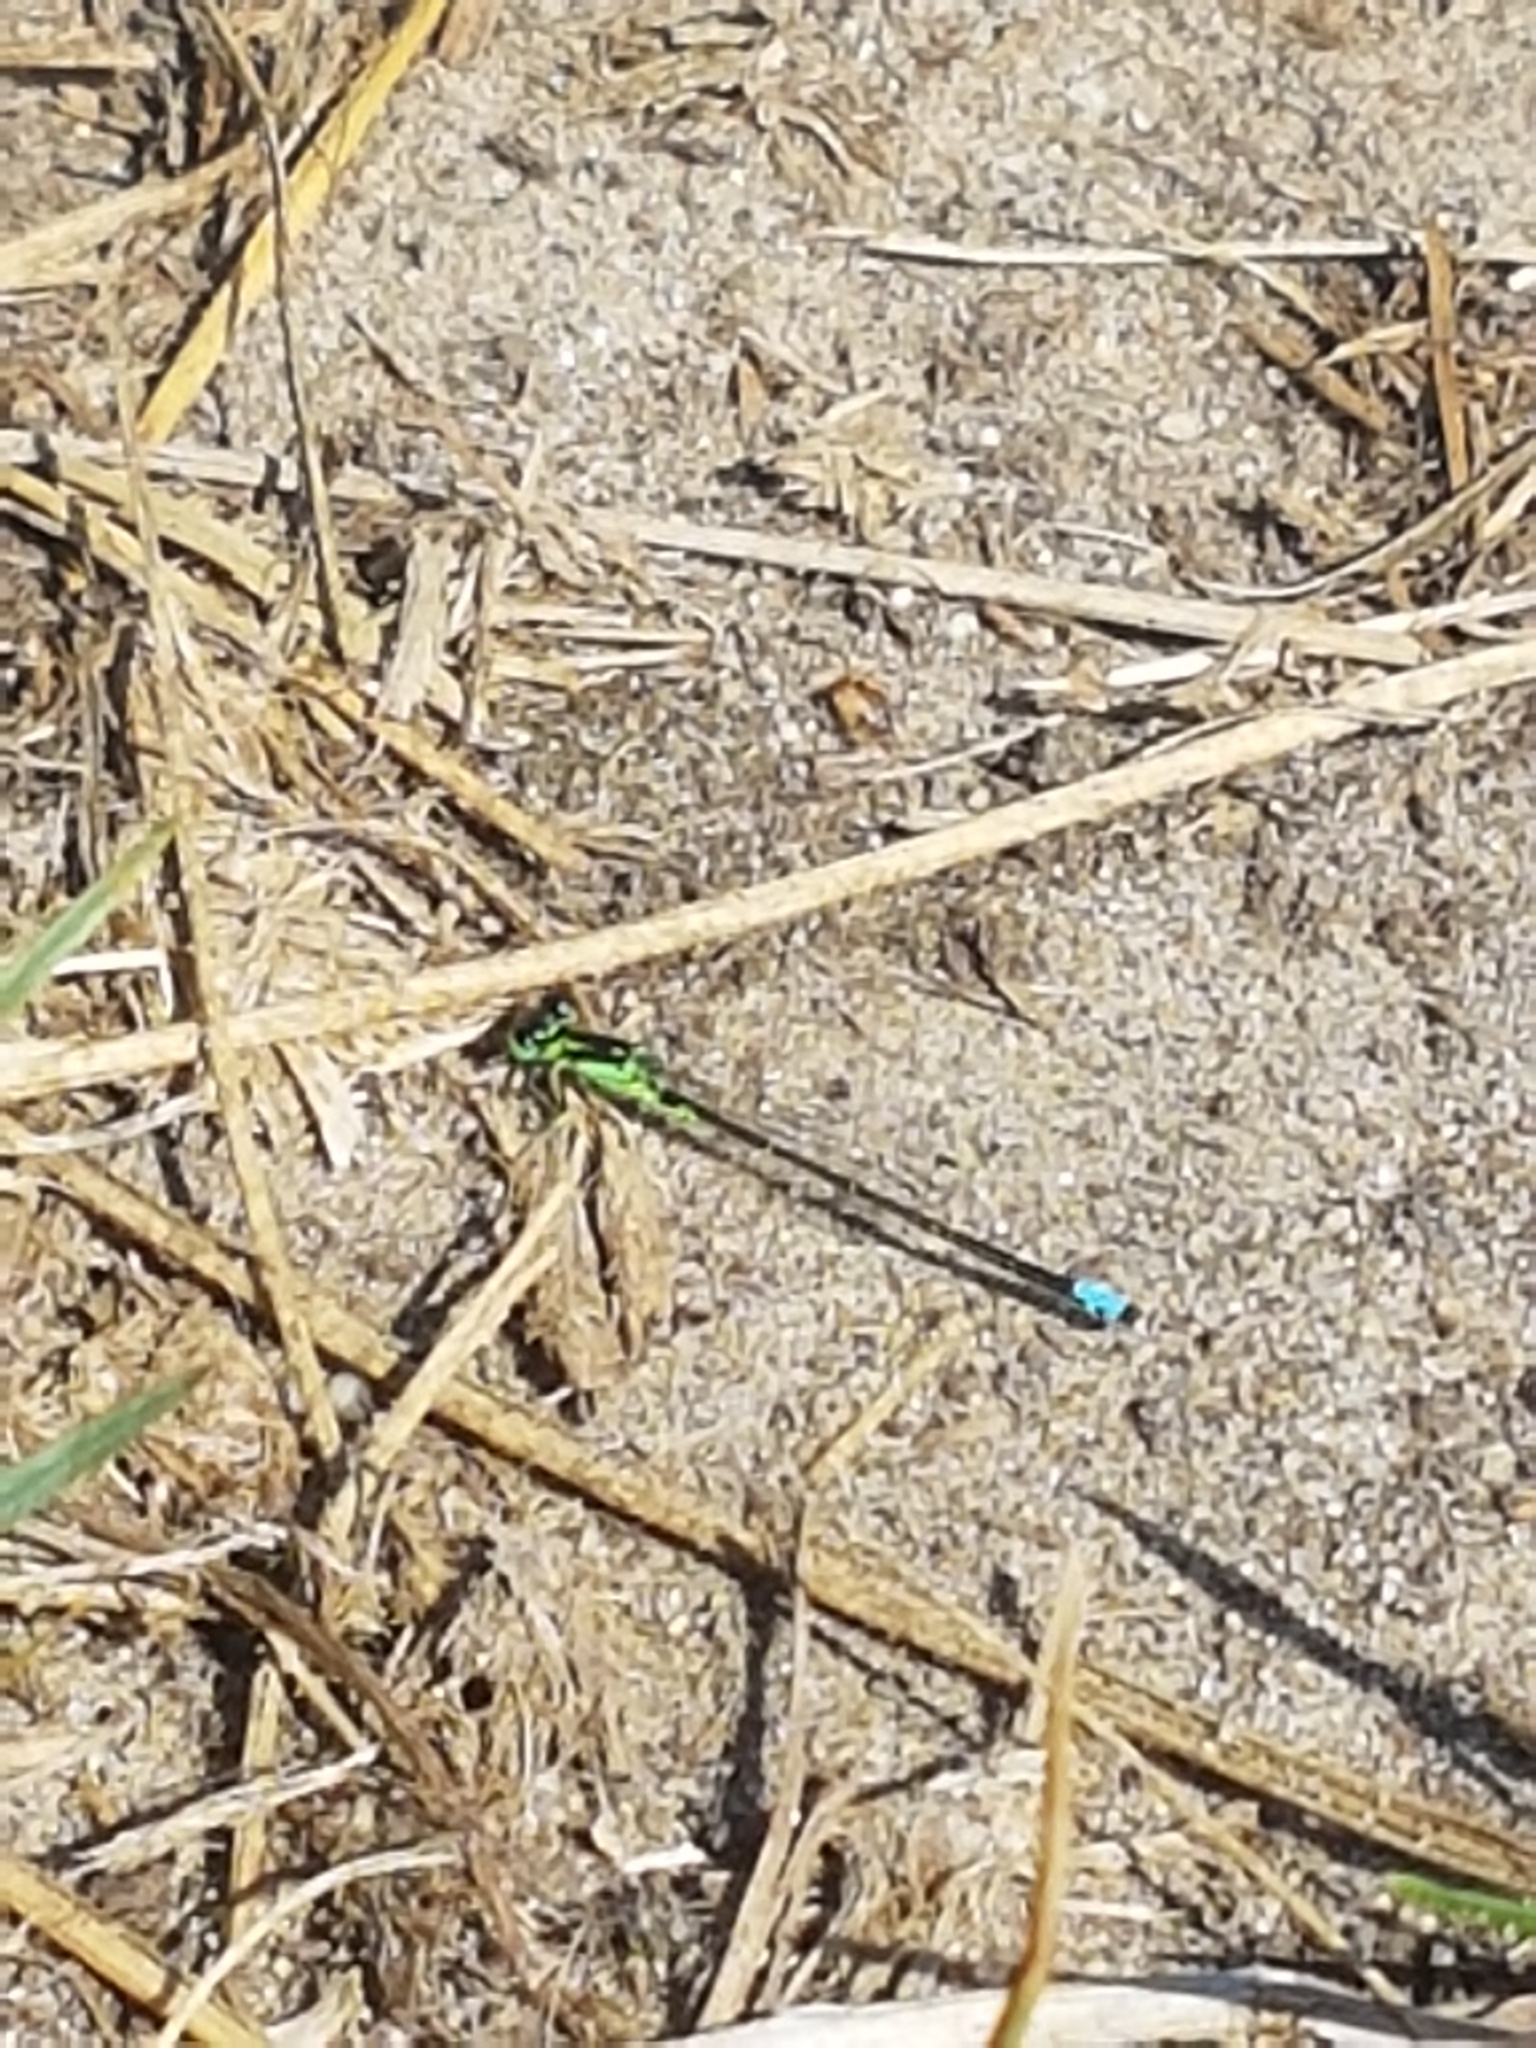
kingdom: Animalia
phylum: Arthropoda
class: Insecta
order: Odonata
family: Coenagrionidae
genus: Ischnura
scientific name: Ischnura verticalis
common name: Eastern forktail
